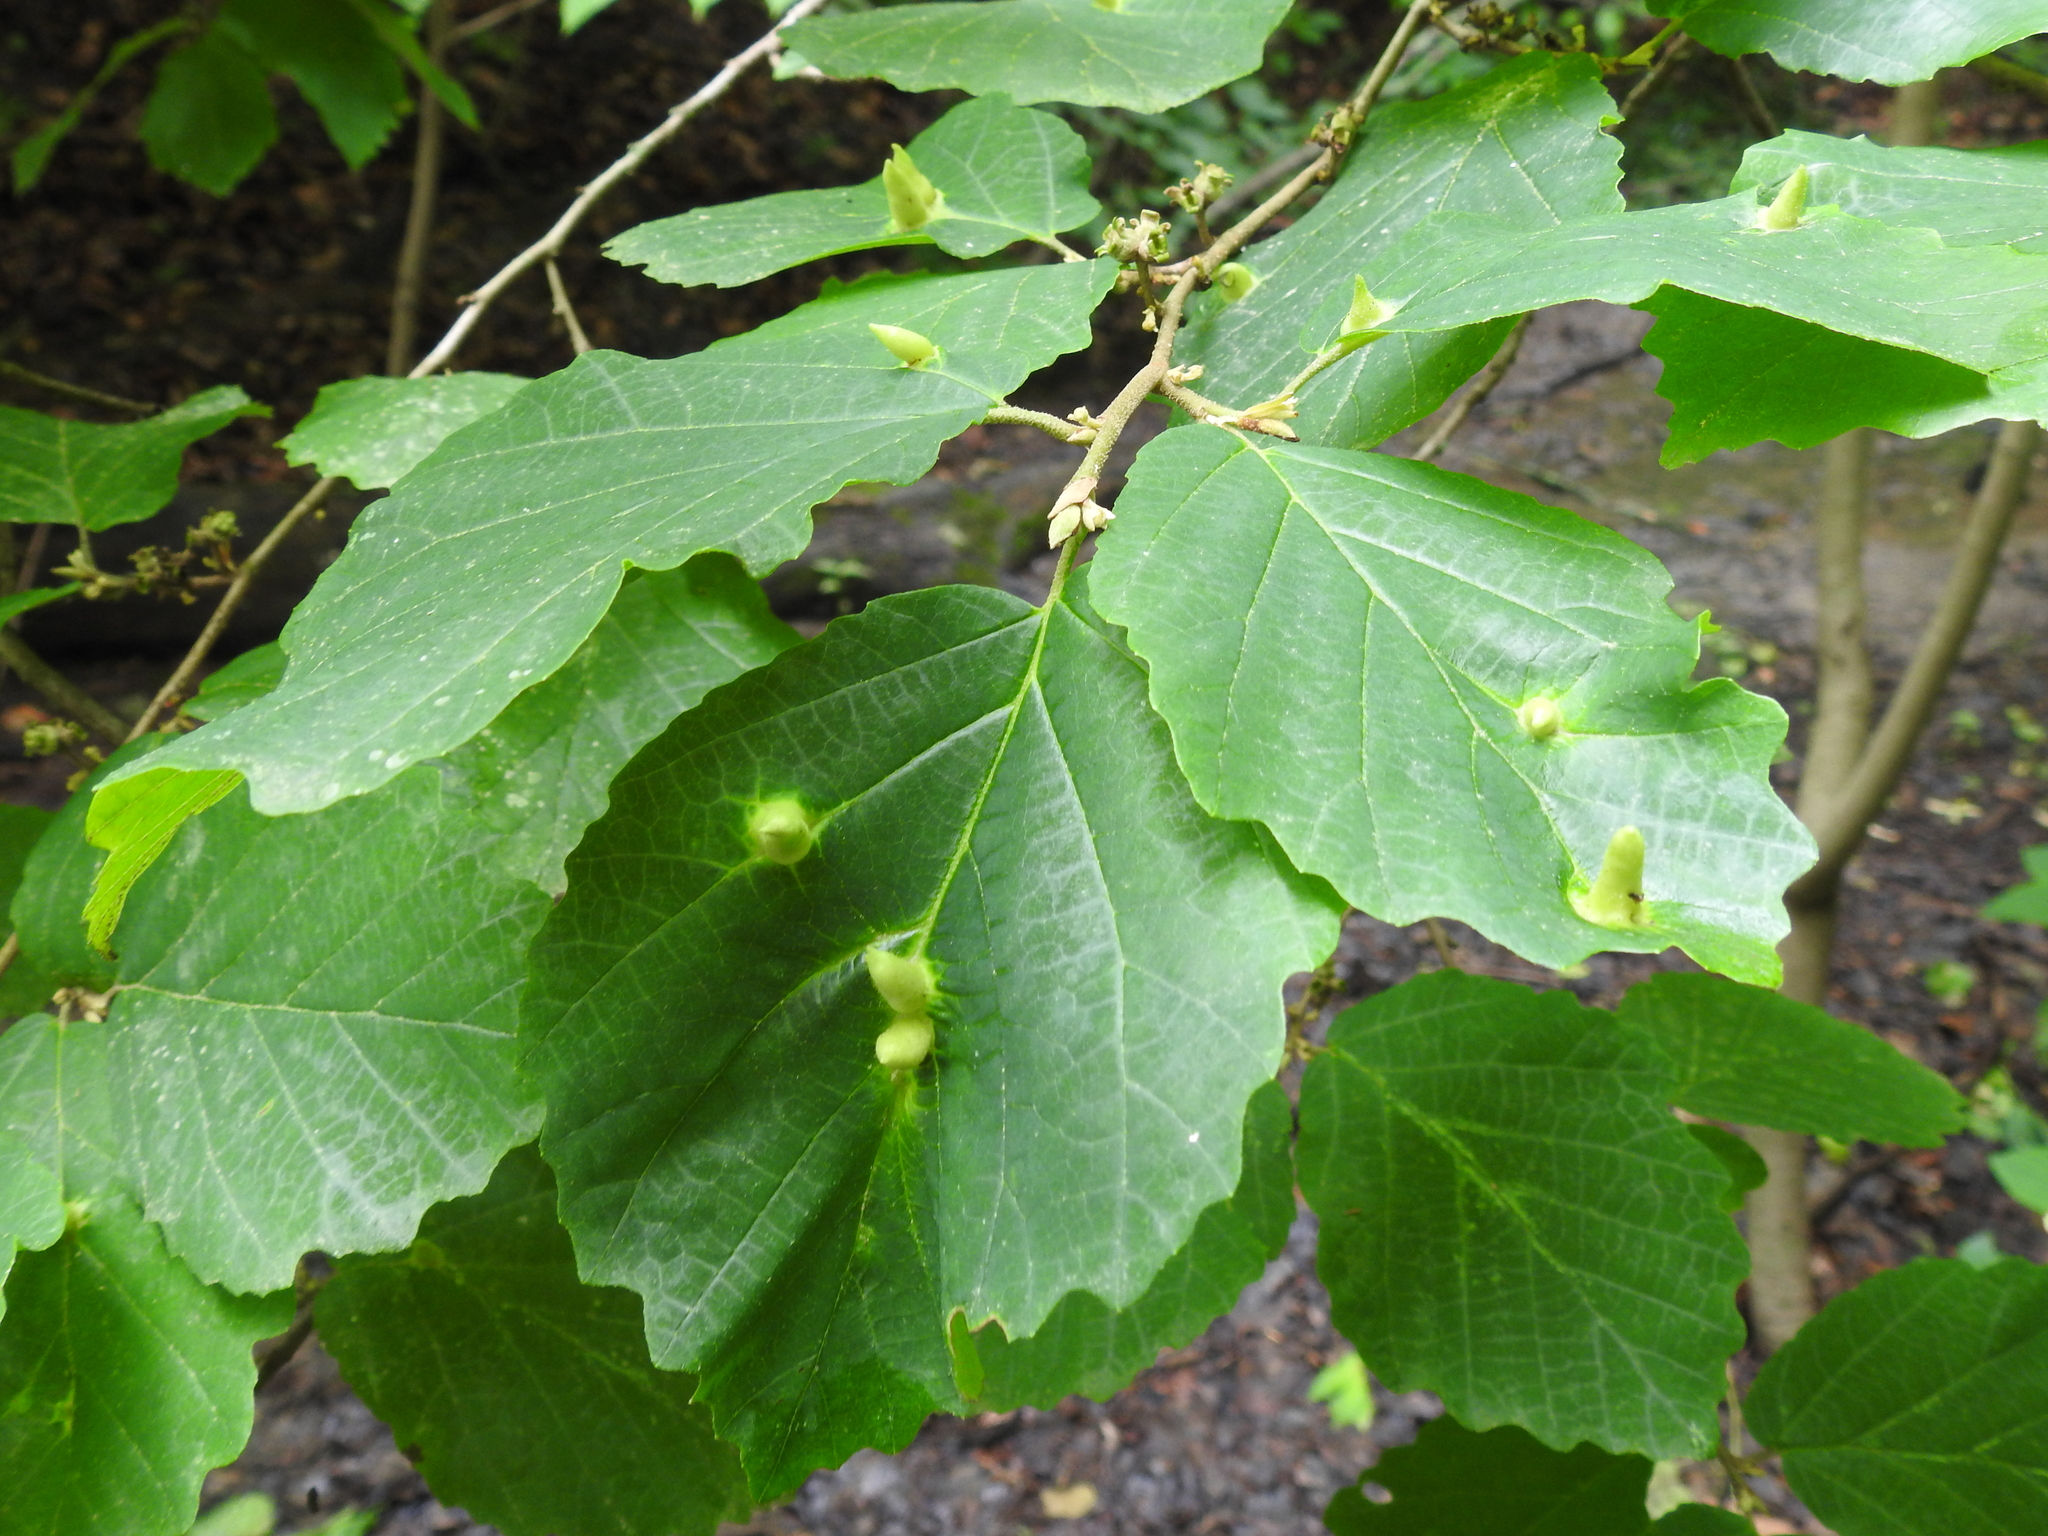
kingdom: Animalia
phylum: Arthropoda
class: Insecta
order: Hemiptera
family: Aphididae
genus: Hormaphis
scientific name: Hormaphis hamamelidis
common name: Witch-hazel cone gall aphid
